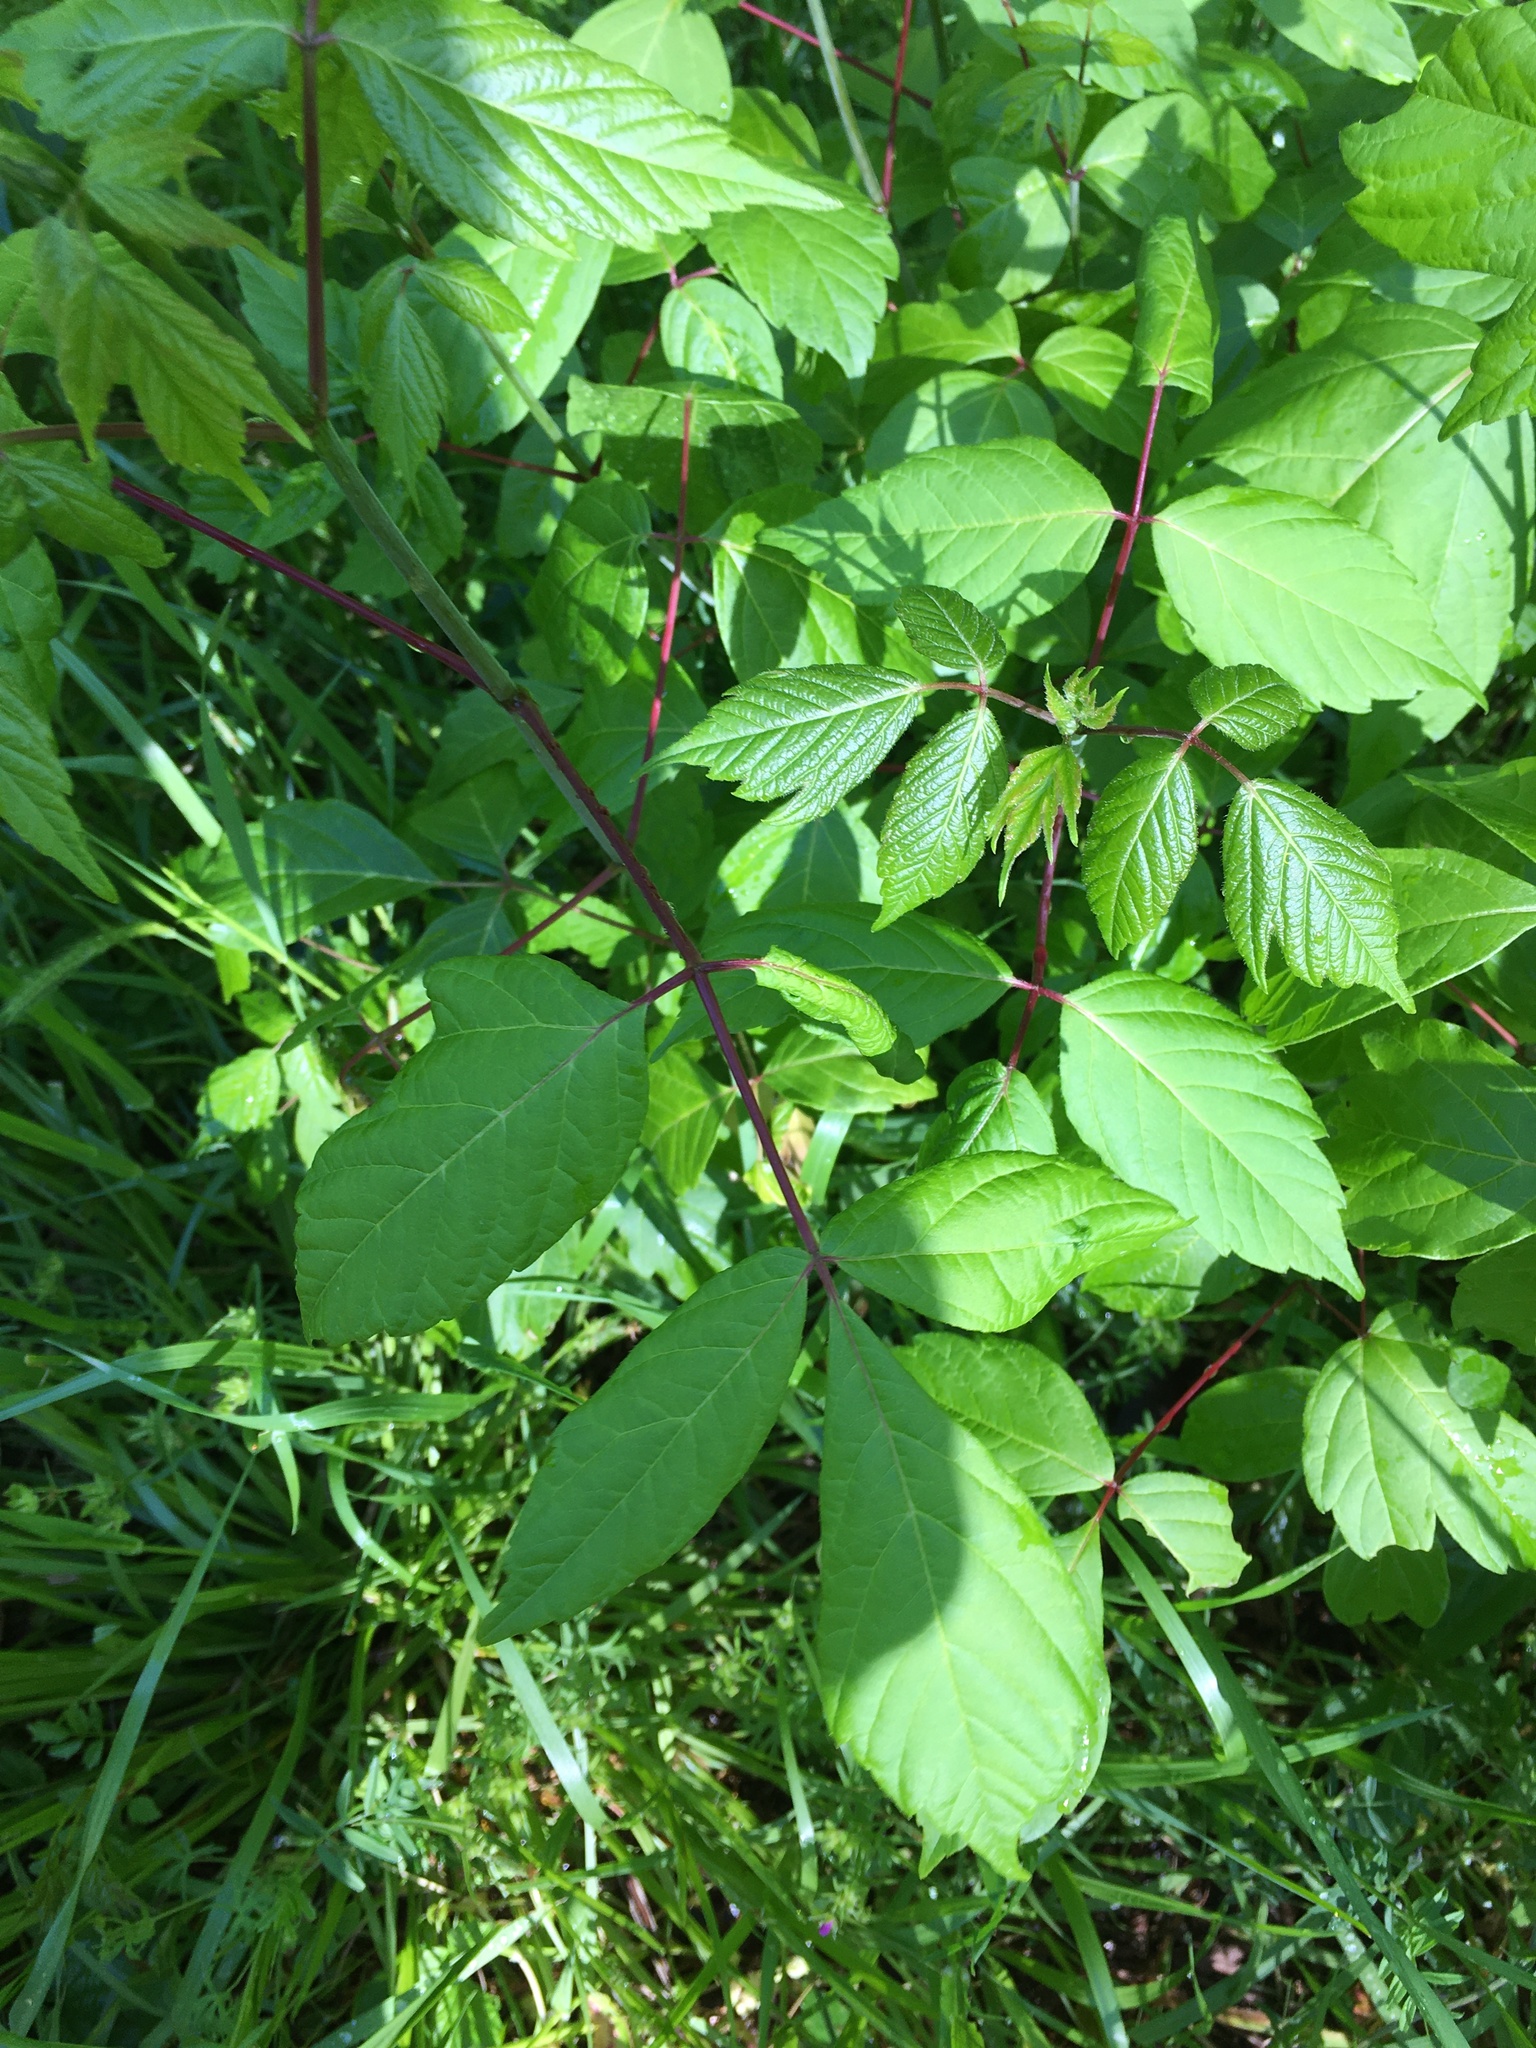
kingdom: Plantae
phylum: Tracheophyta
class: Magnoliopsida
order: Sapindales
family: Sapindaceae
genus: Acer
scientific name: Acer negundo
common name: Ashleaf maple
